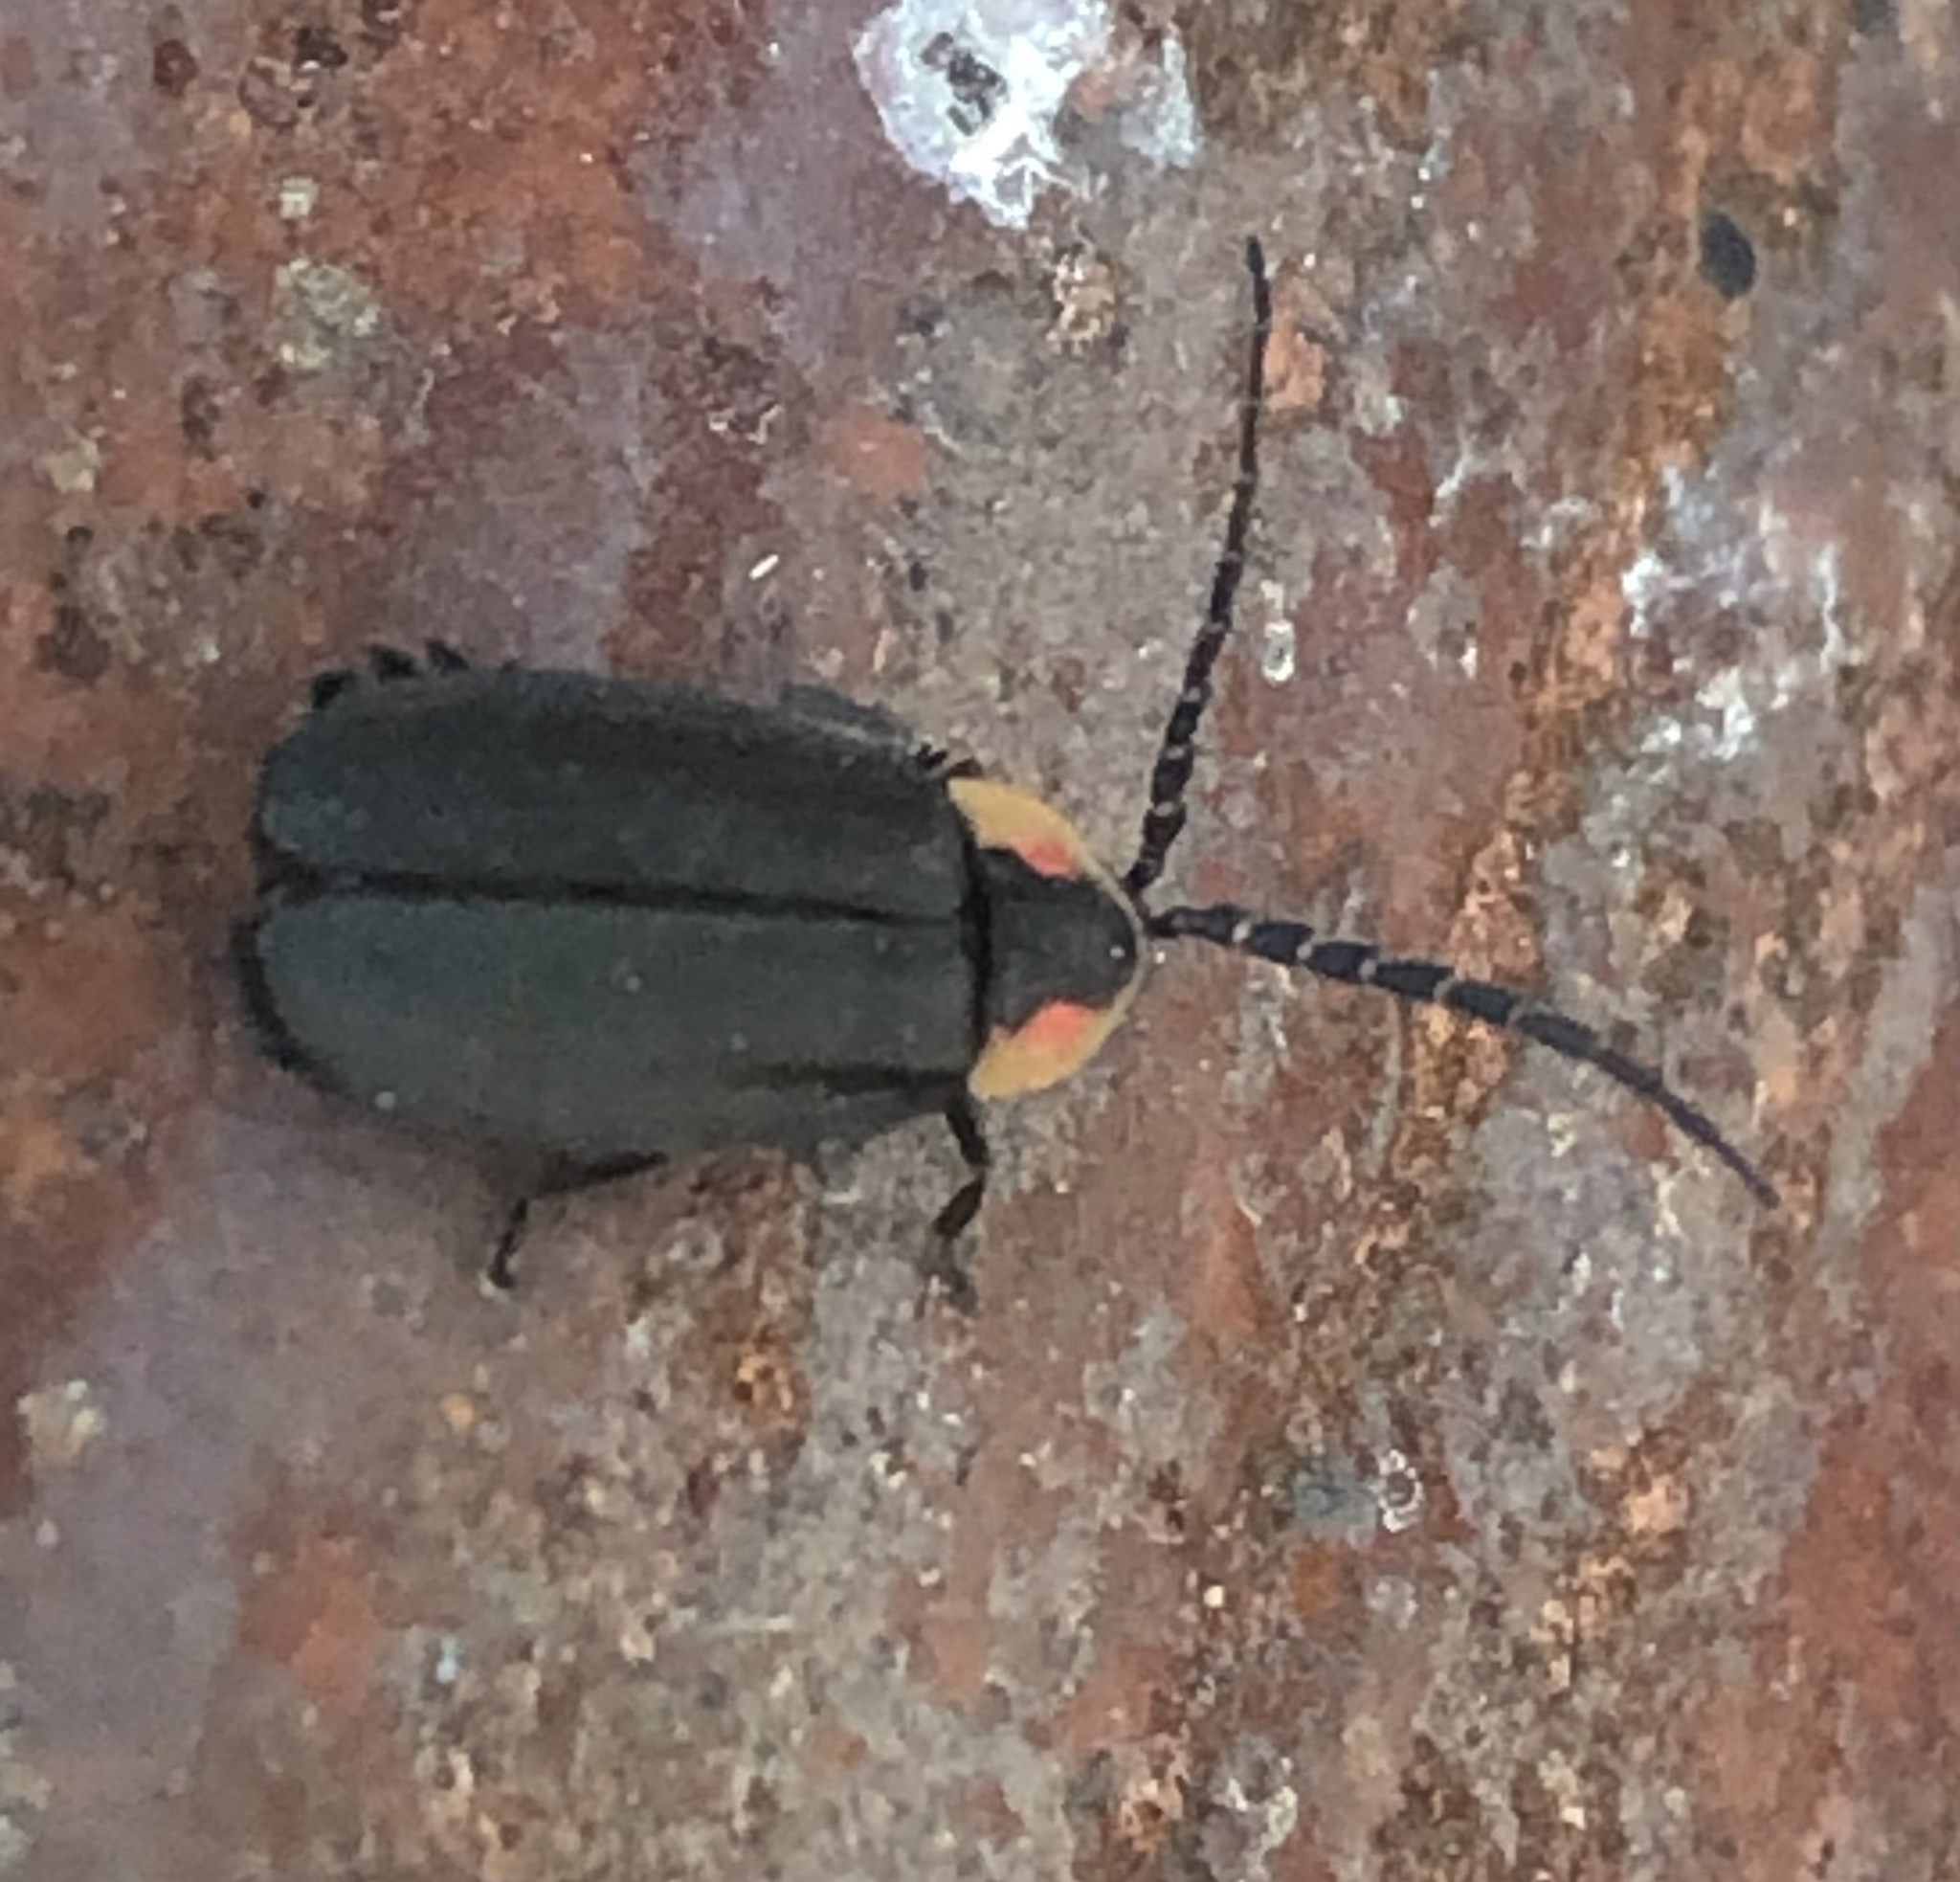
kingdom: Animalia
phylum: Arthropoda
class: Insecta
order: Coleoptera
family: Lampyridae
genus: Lucidota
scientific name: Lucidota atra
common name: Black firefly
